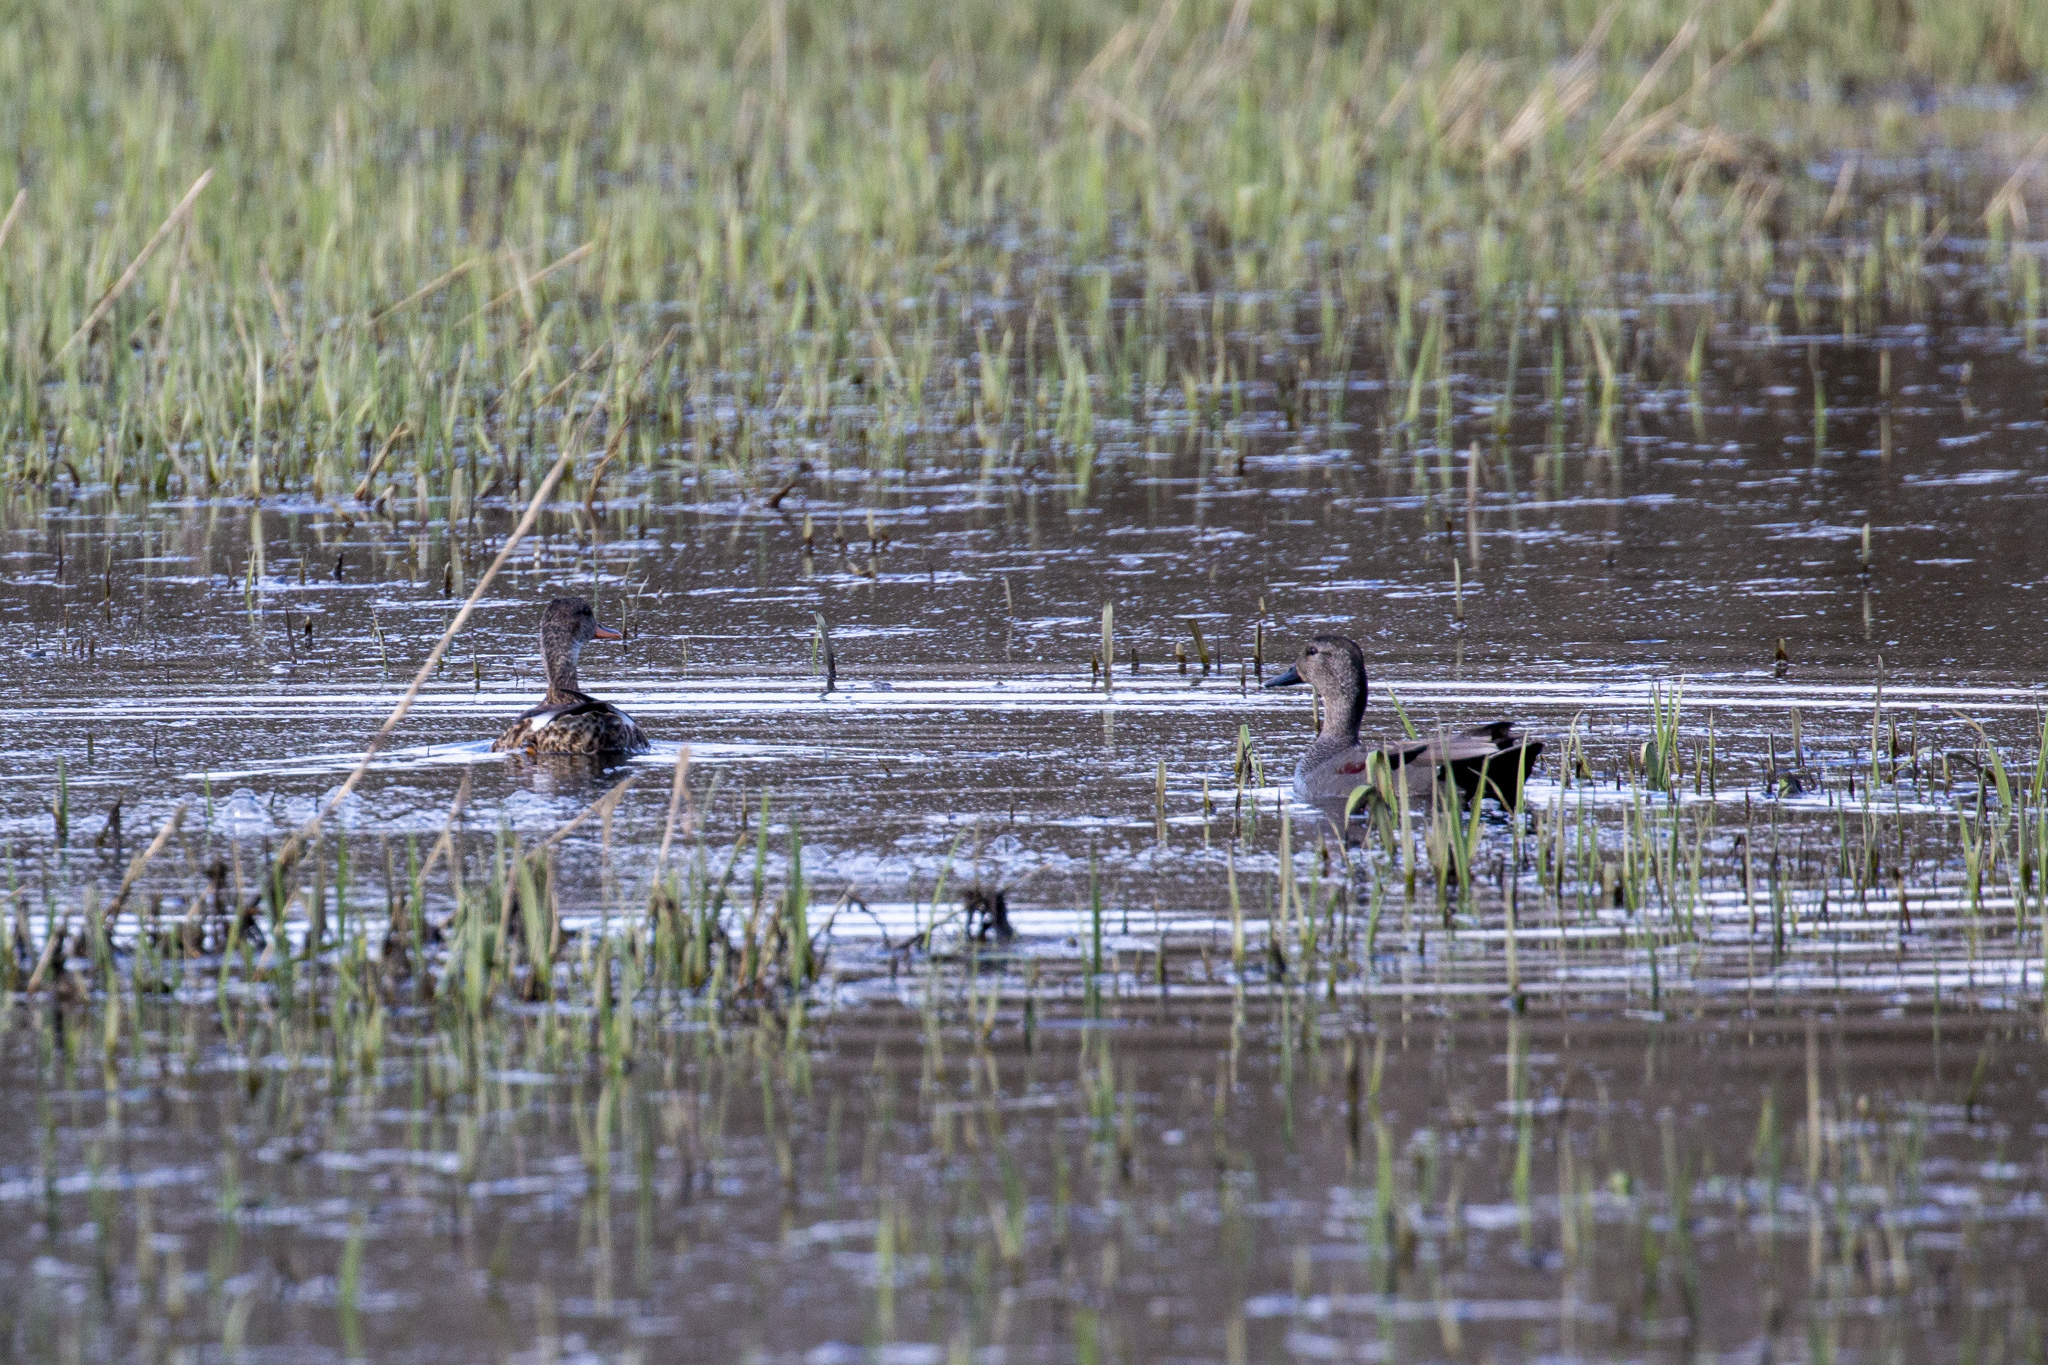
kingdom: Animalia
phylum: Chordata
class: Aves
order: Anseriformes
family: Anatidae
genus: Mareca
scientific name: Mareca strepera
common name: Gadwall
